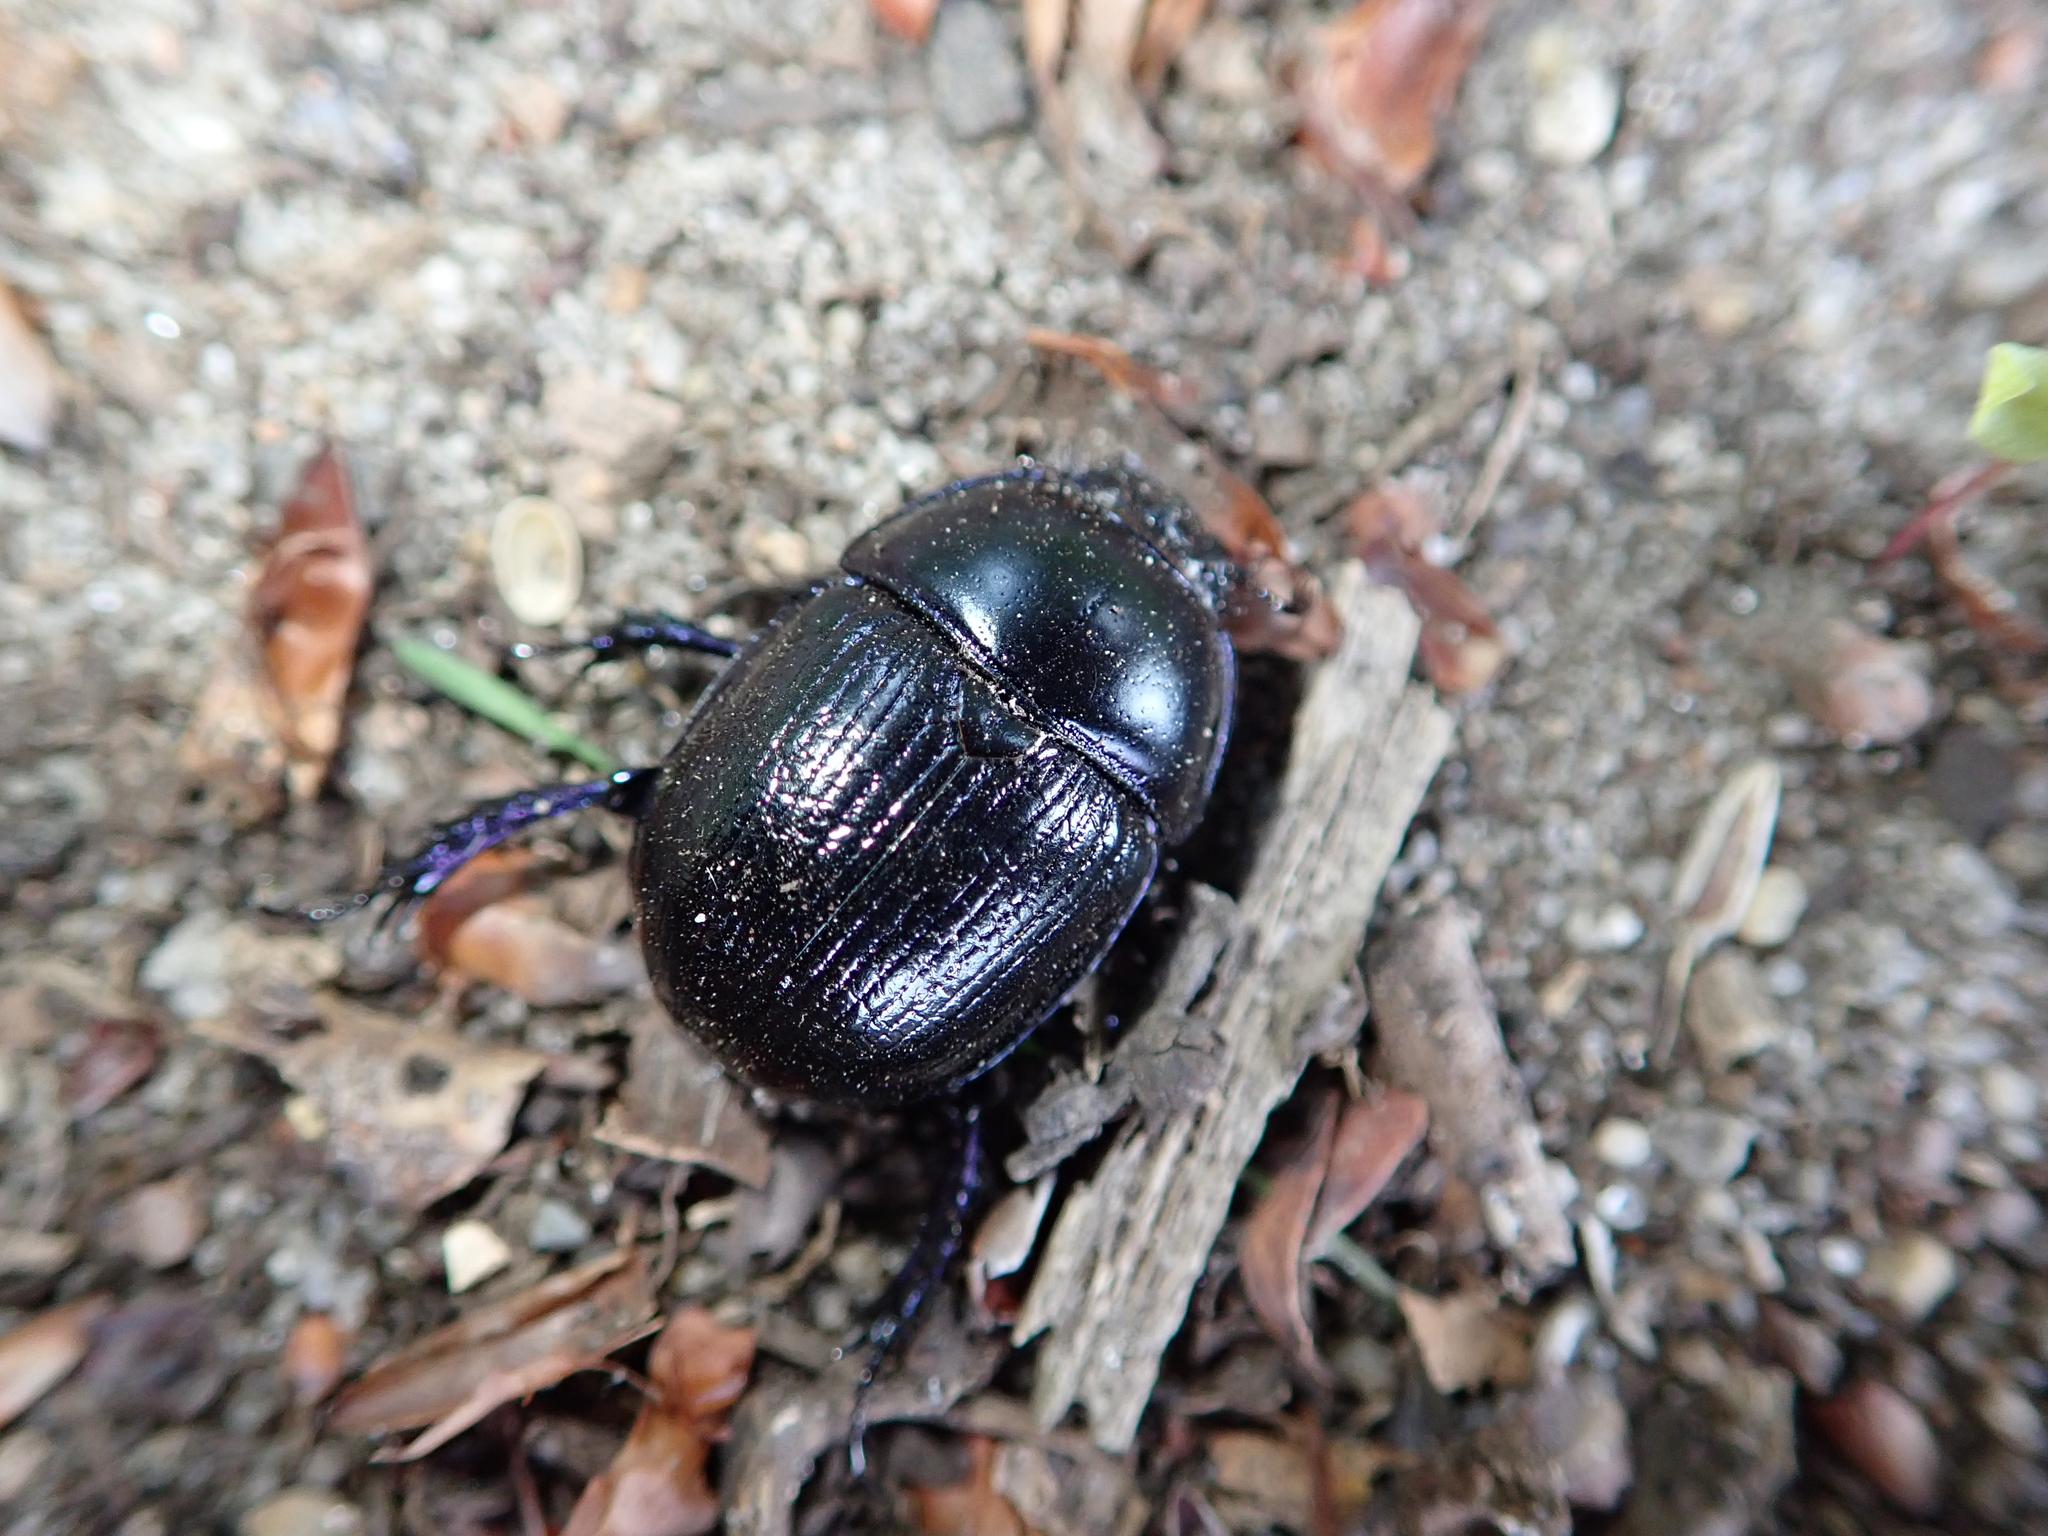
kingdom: Animalia
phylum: Arthropoda
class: Insecta
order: Coleoptera
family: Geotrupidae
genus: Anoplotrupes
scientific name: Anoplotrupes stercorosus
